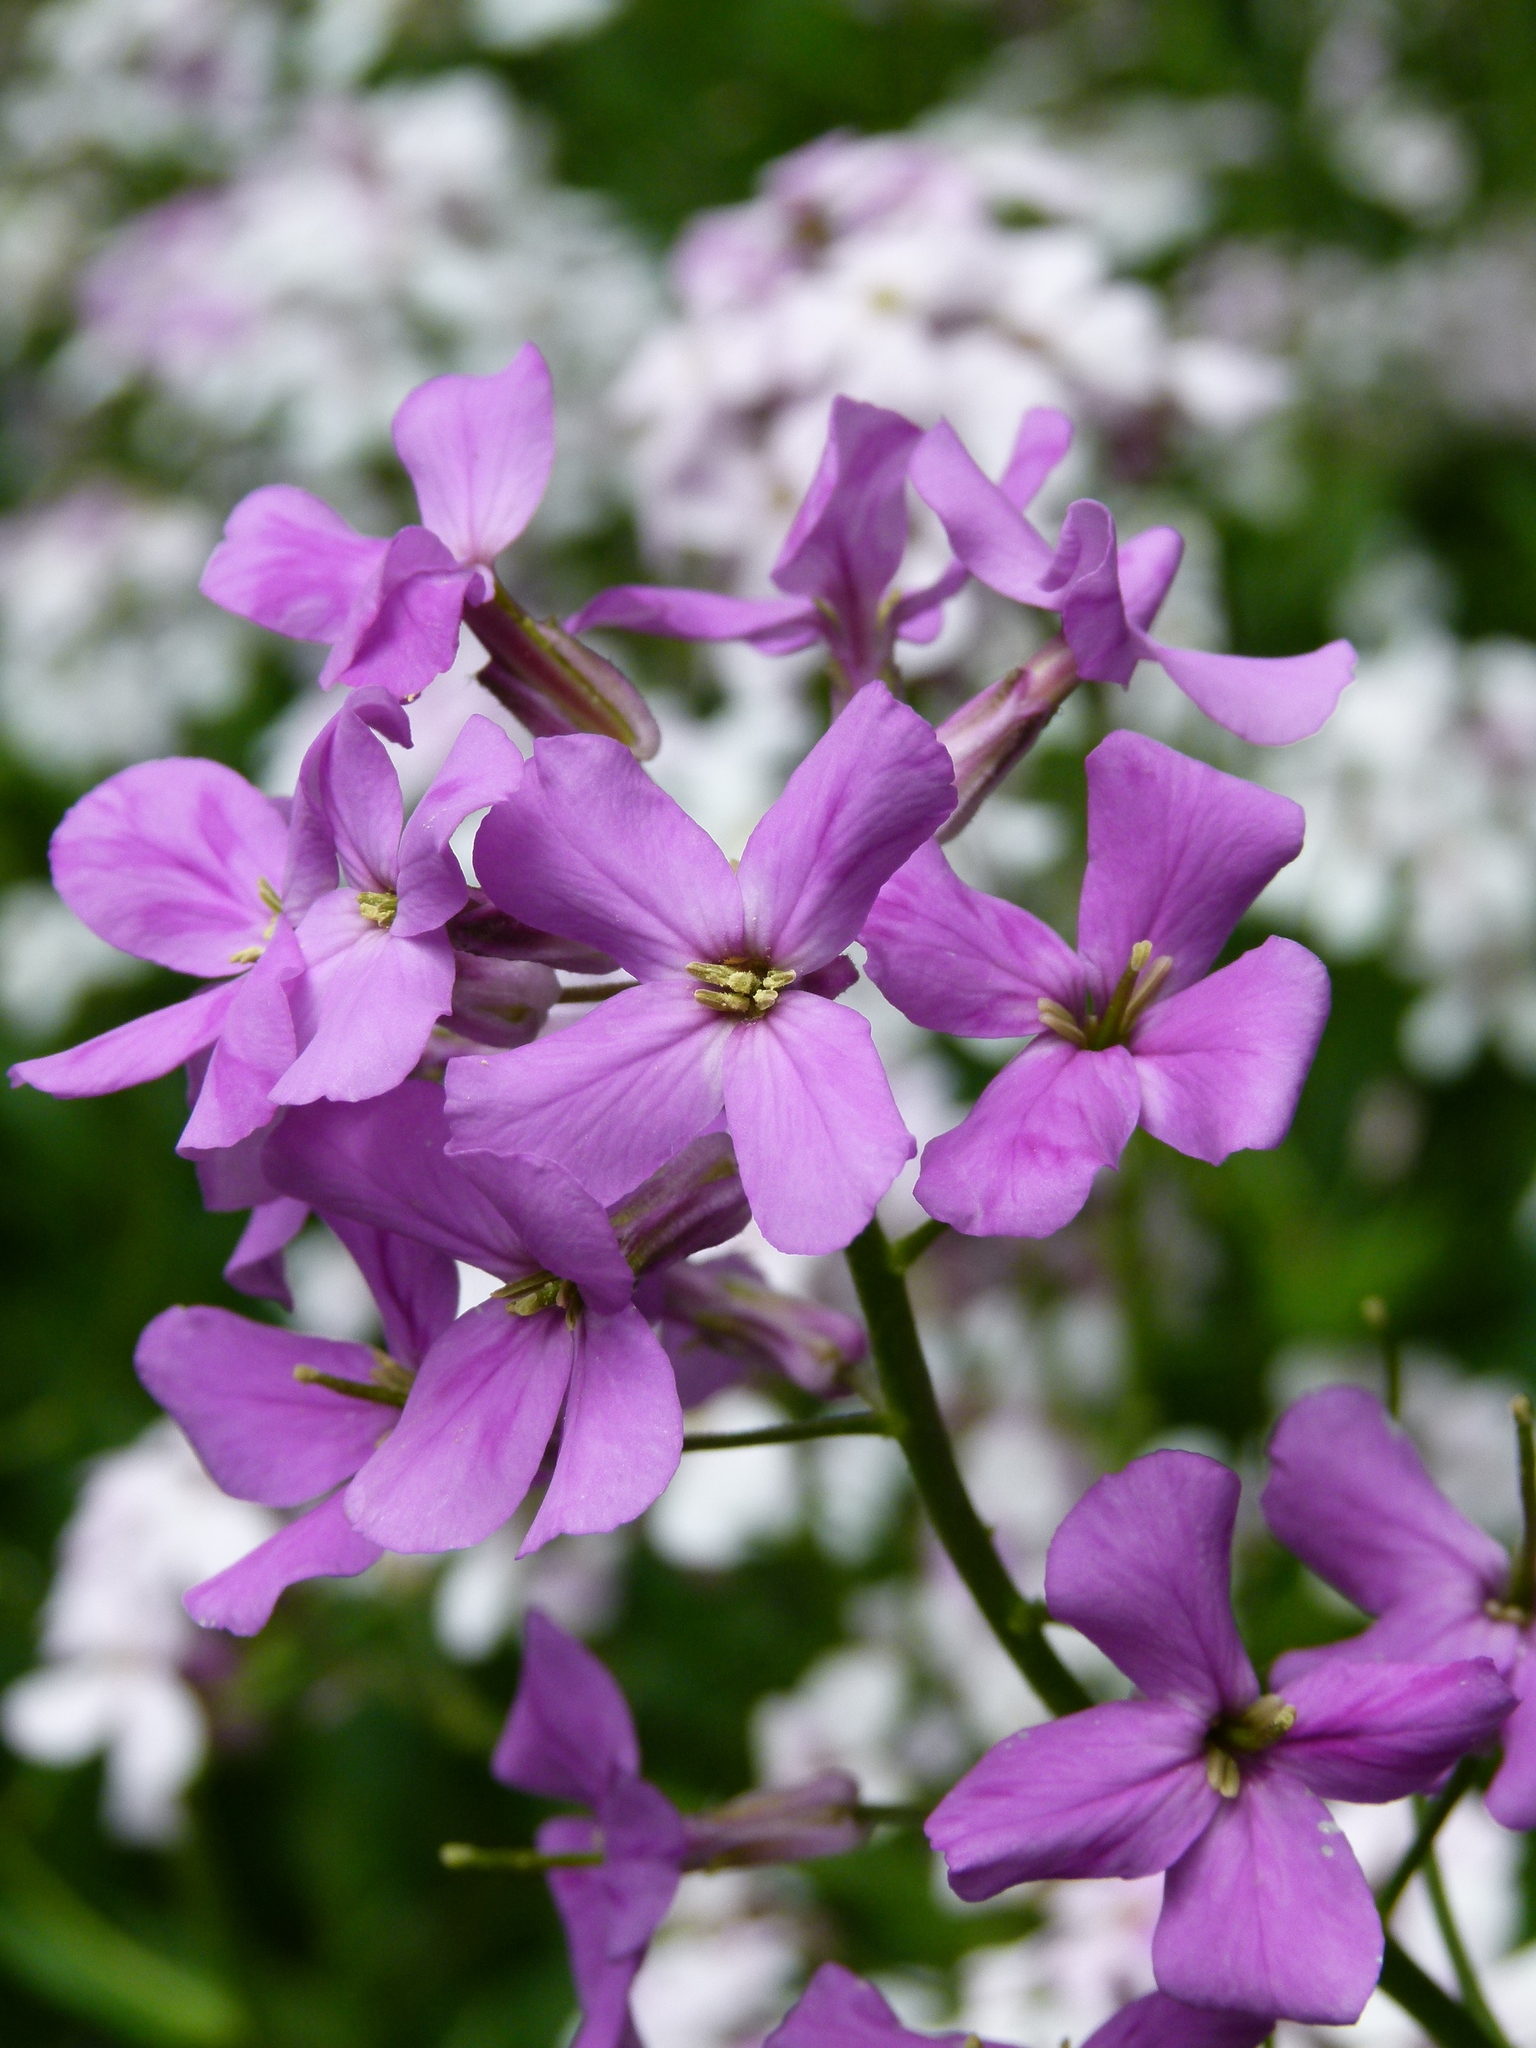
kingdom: Plantae
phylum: Tracheophyta
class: Magnoliopsida
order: Brassicales
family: Brassicaceae
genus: Hesperis
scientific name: Hesperis matronalis
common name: Dame's-violet
